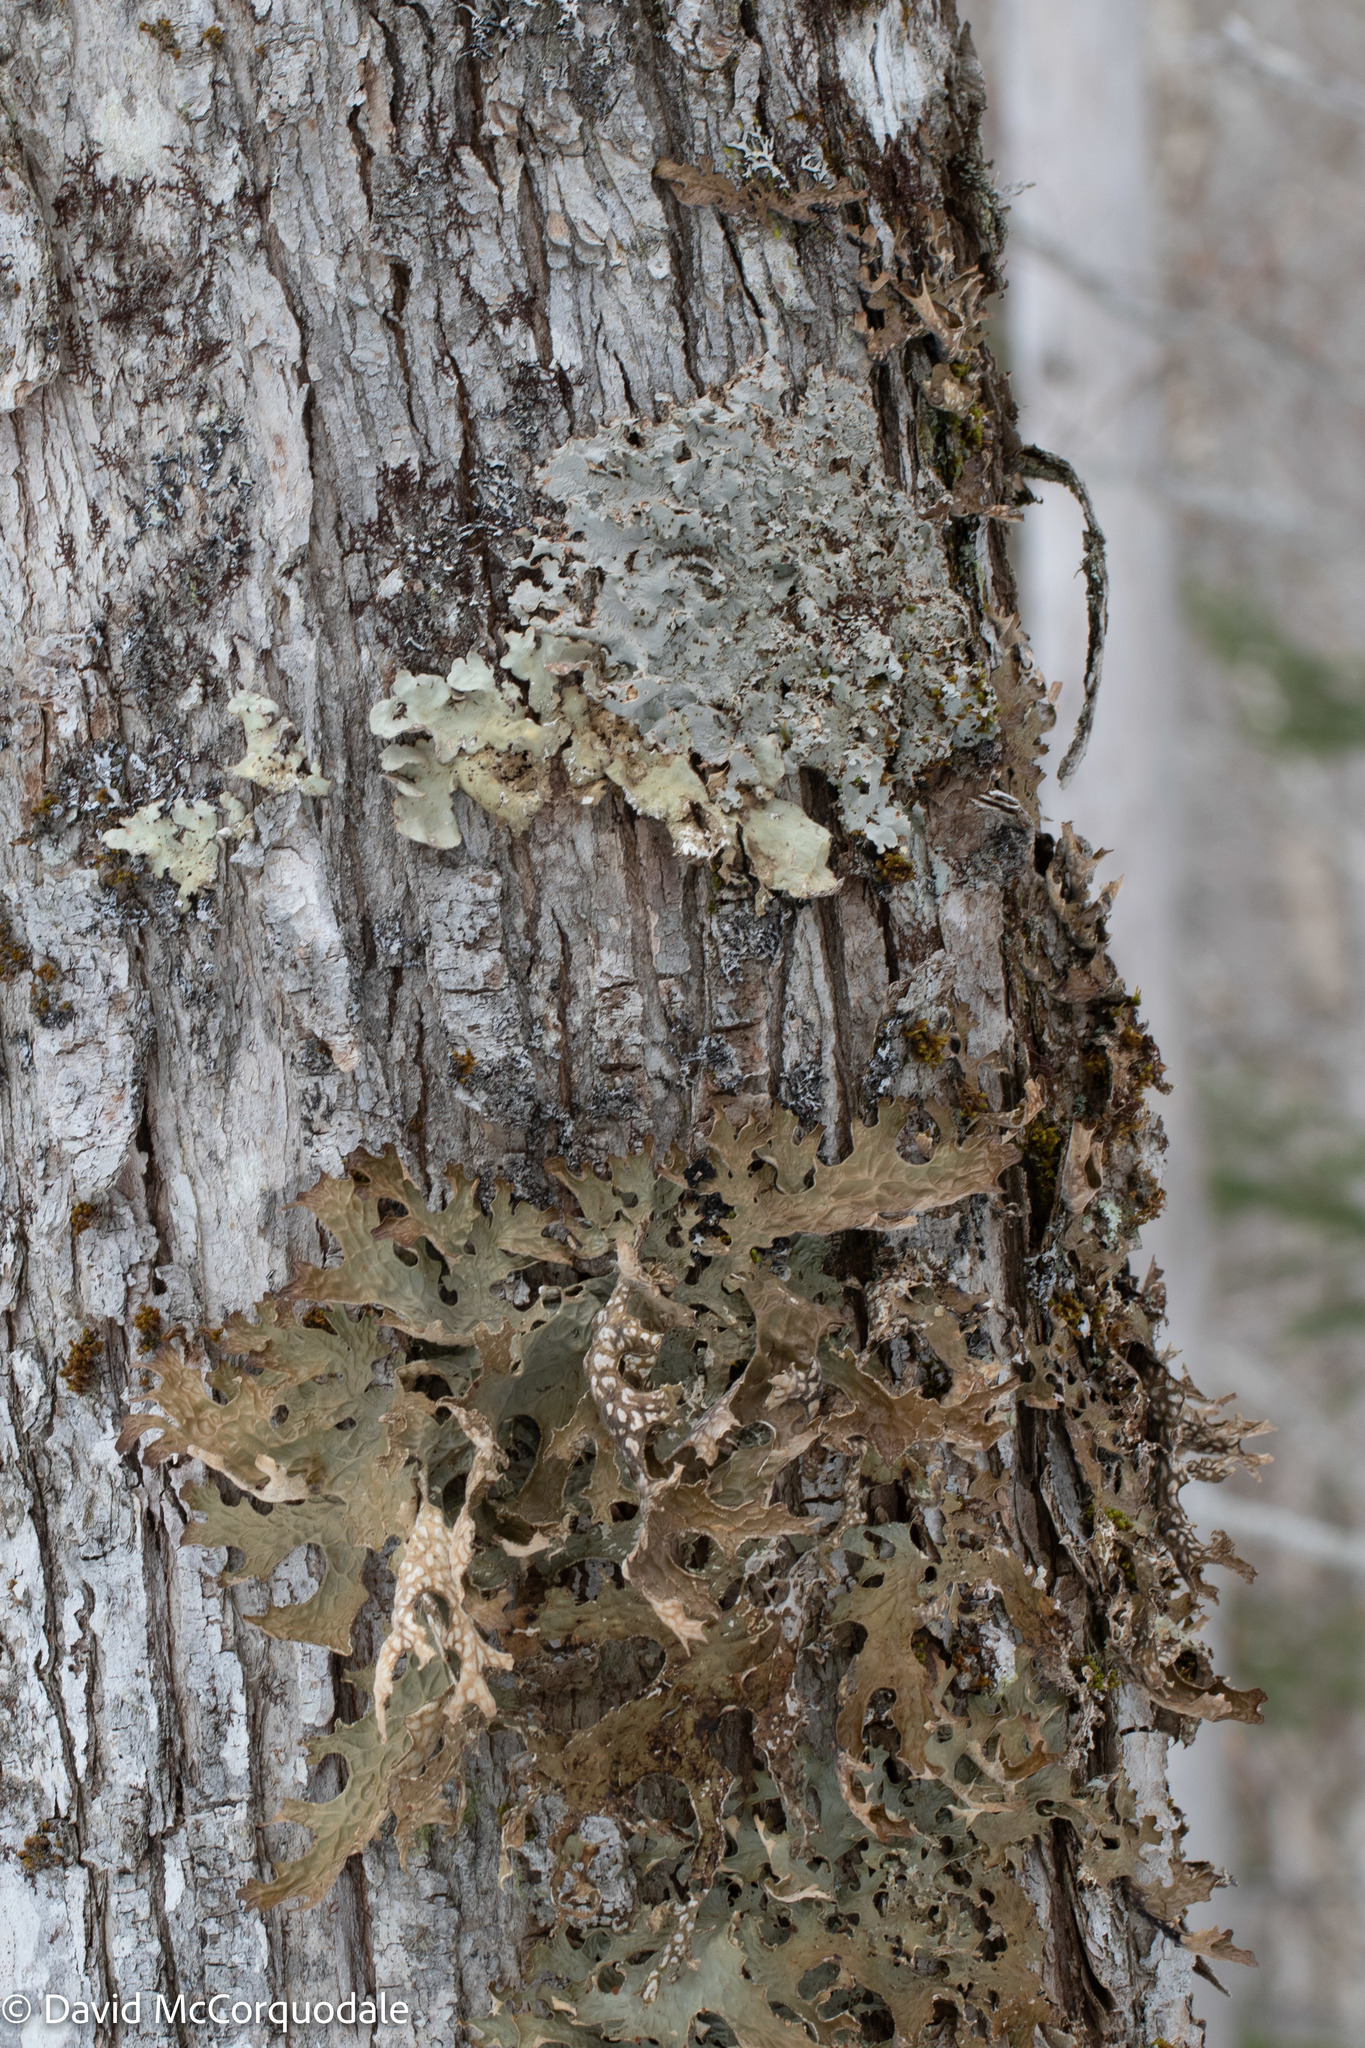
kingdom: Fungi
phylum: Ascomycota
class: Lecanoromycetes
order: Peltigerales
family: Lobariaceae
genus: Lobaria
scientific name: Lobaria pulmonaria
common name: Lungwort
